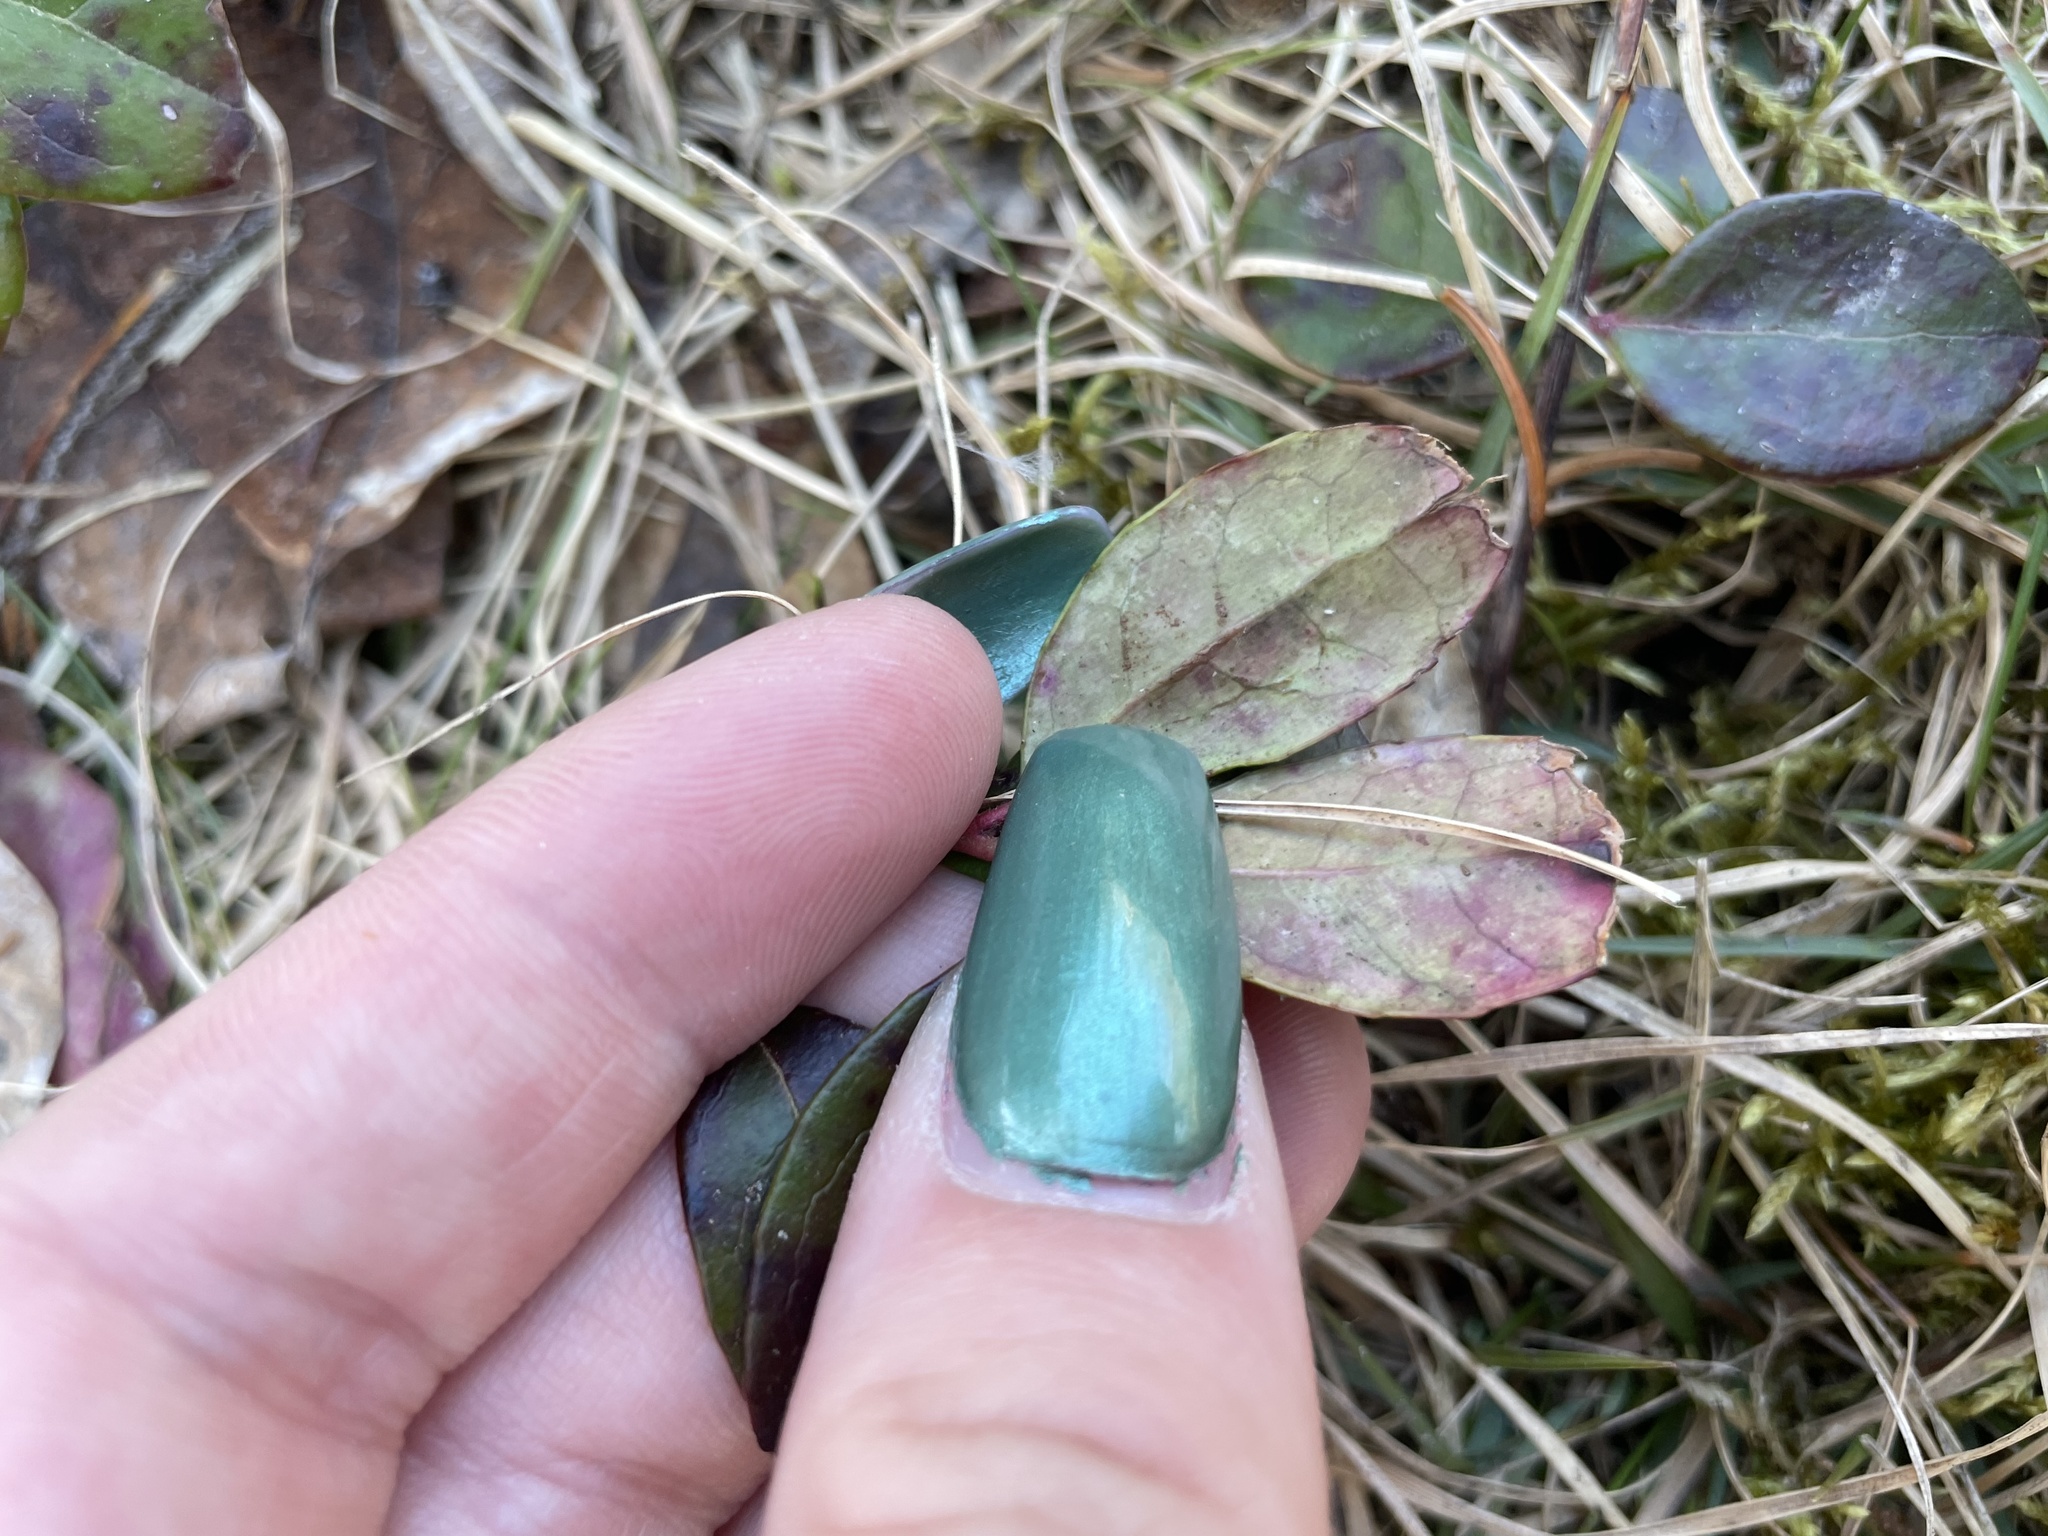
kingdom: Plantae
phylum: Tracheophyta
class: Magnoliopsida
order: Ericales
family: Ericaceae
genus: Gaultheria
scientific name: Gaultheria procumbens
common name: Checkerberry
